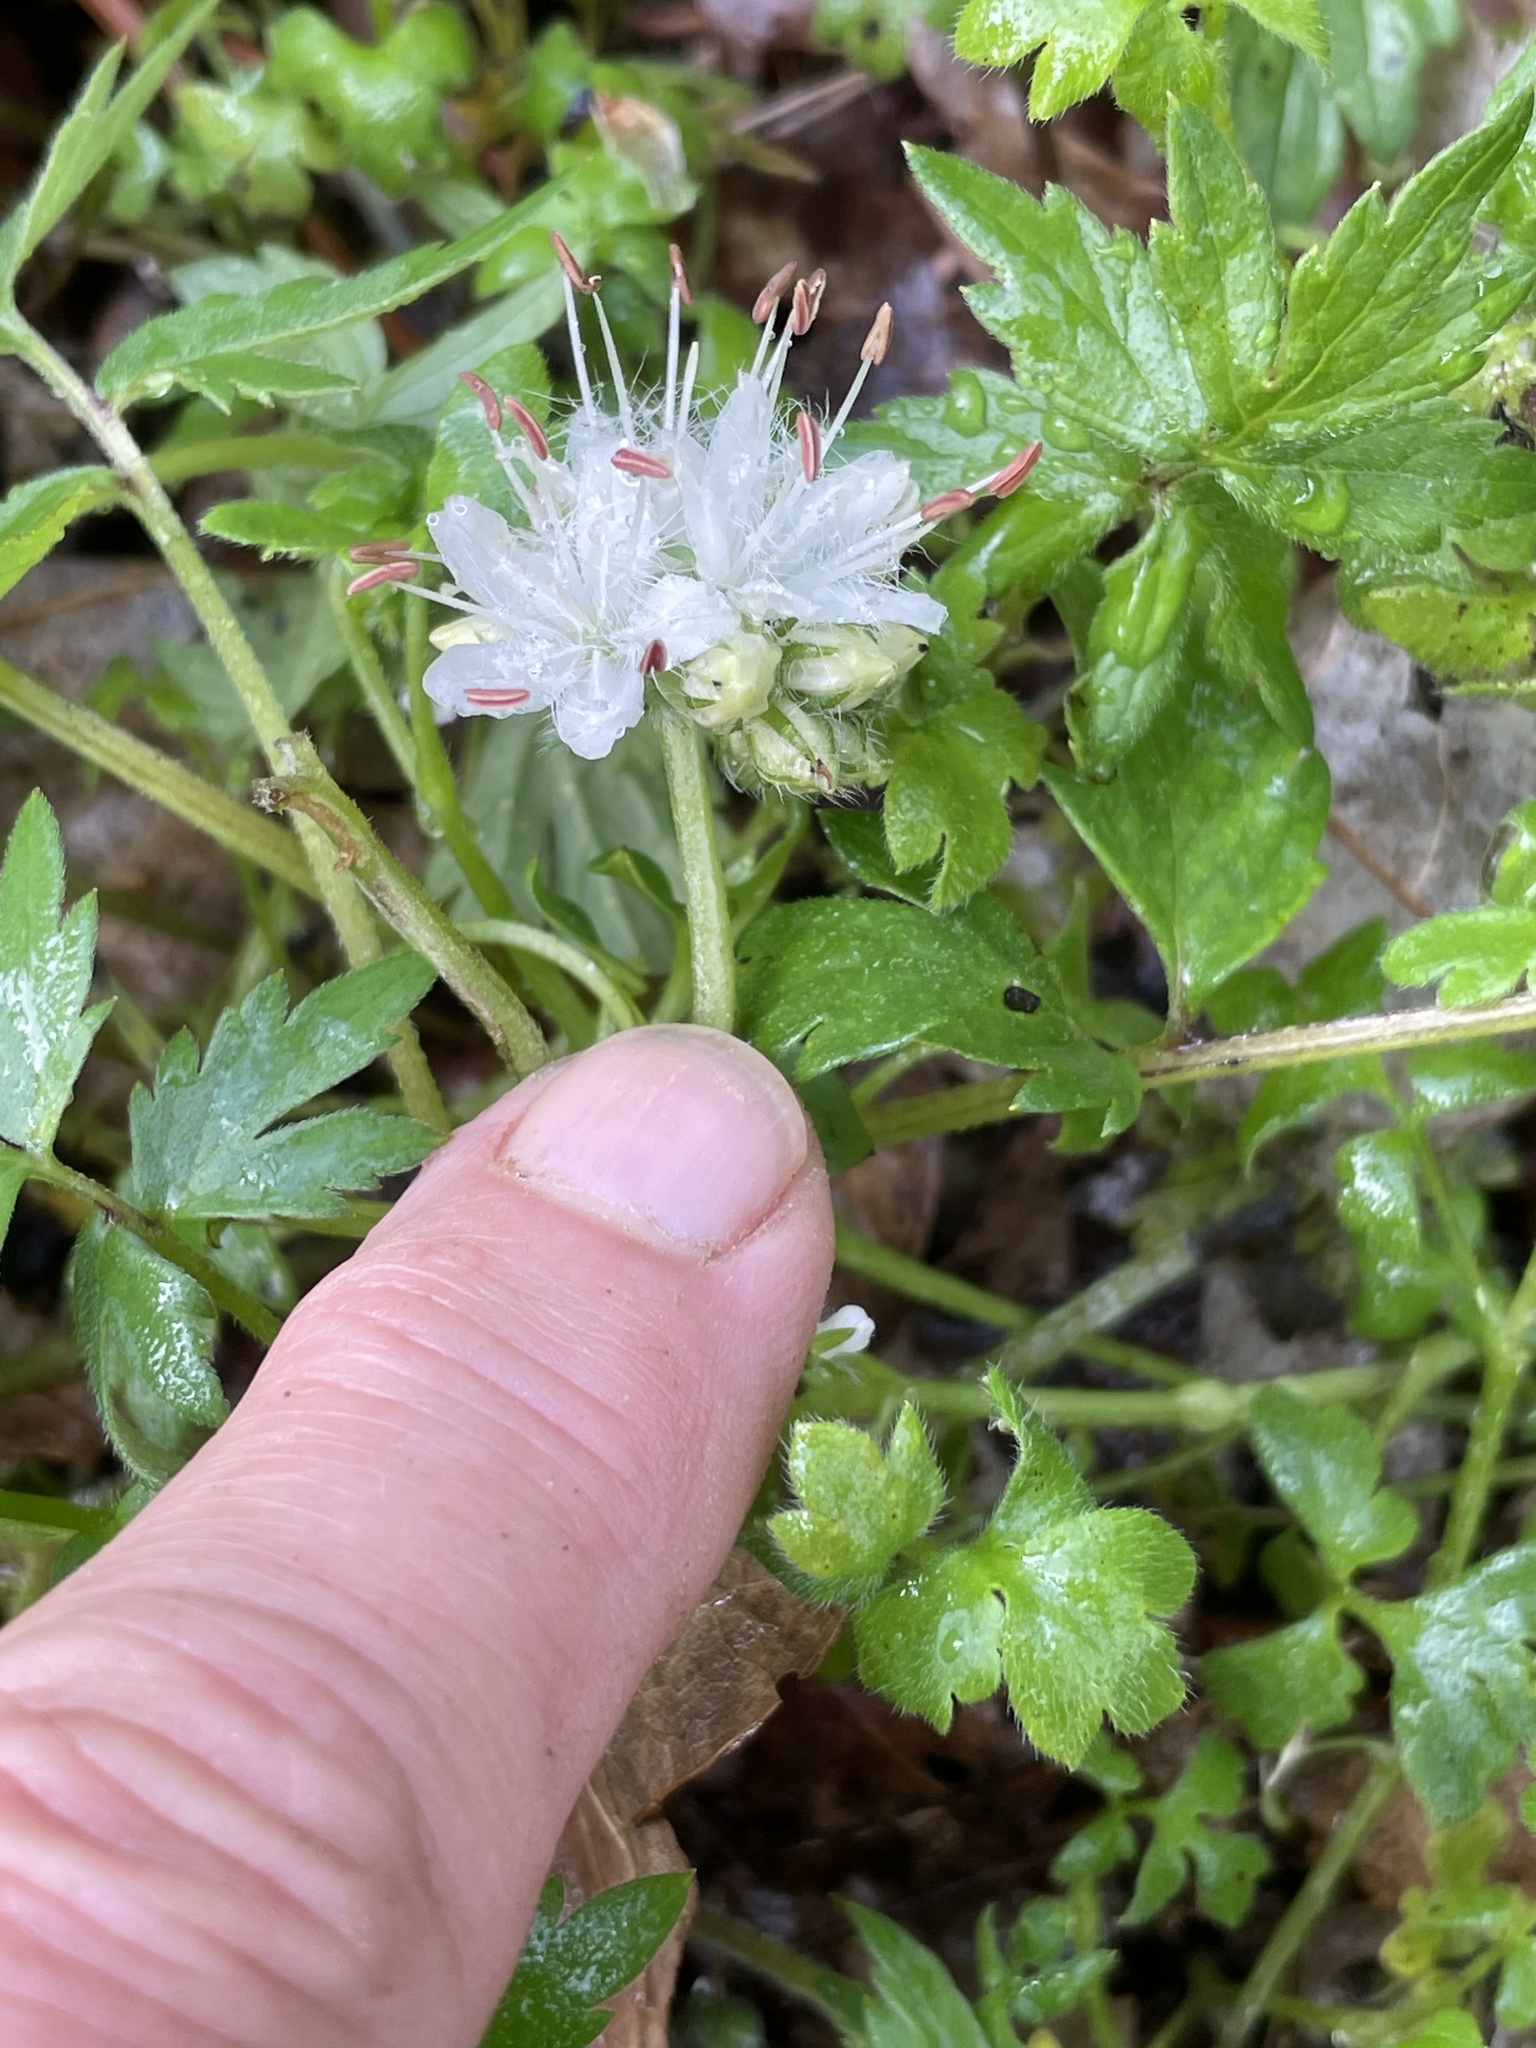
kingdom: Plantae
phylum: Tracheophyta
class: Magnoliopsida
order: Boraginales
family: Hydrophyllaceae
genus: Hydrophyllum
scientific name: Hydrophyllum virginianum
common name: Virginia waterleaf
